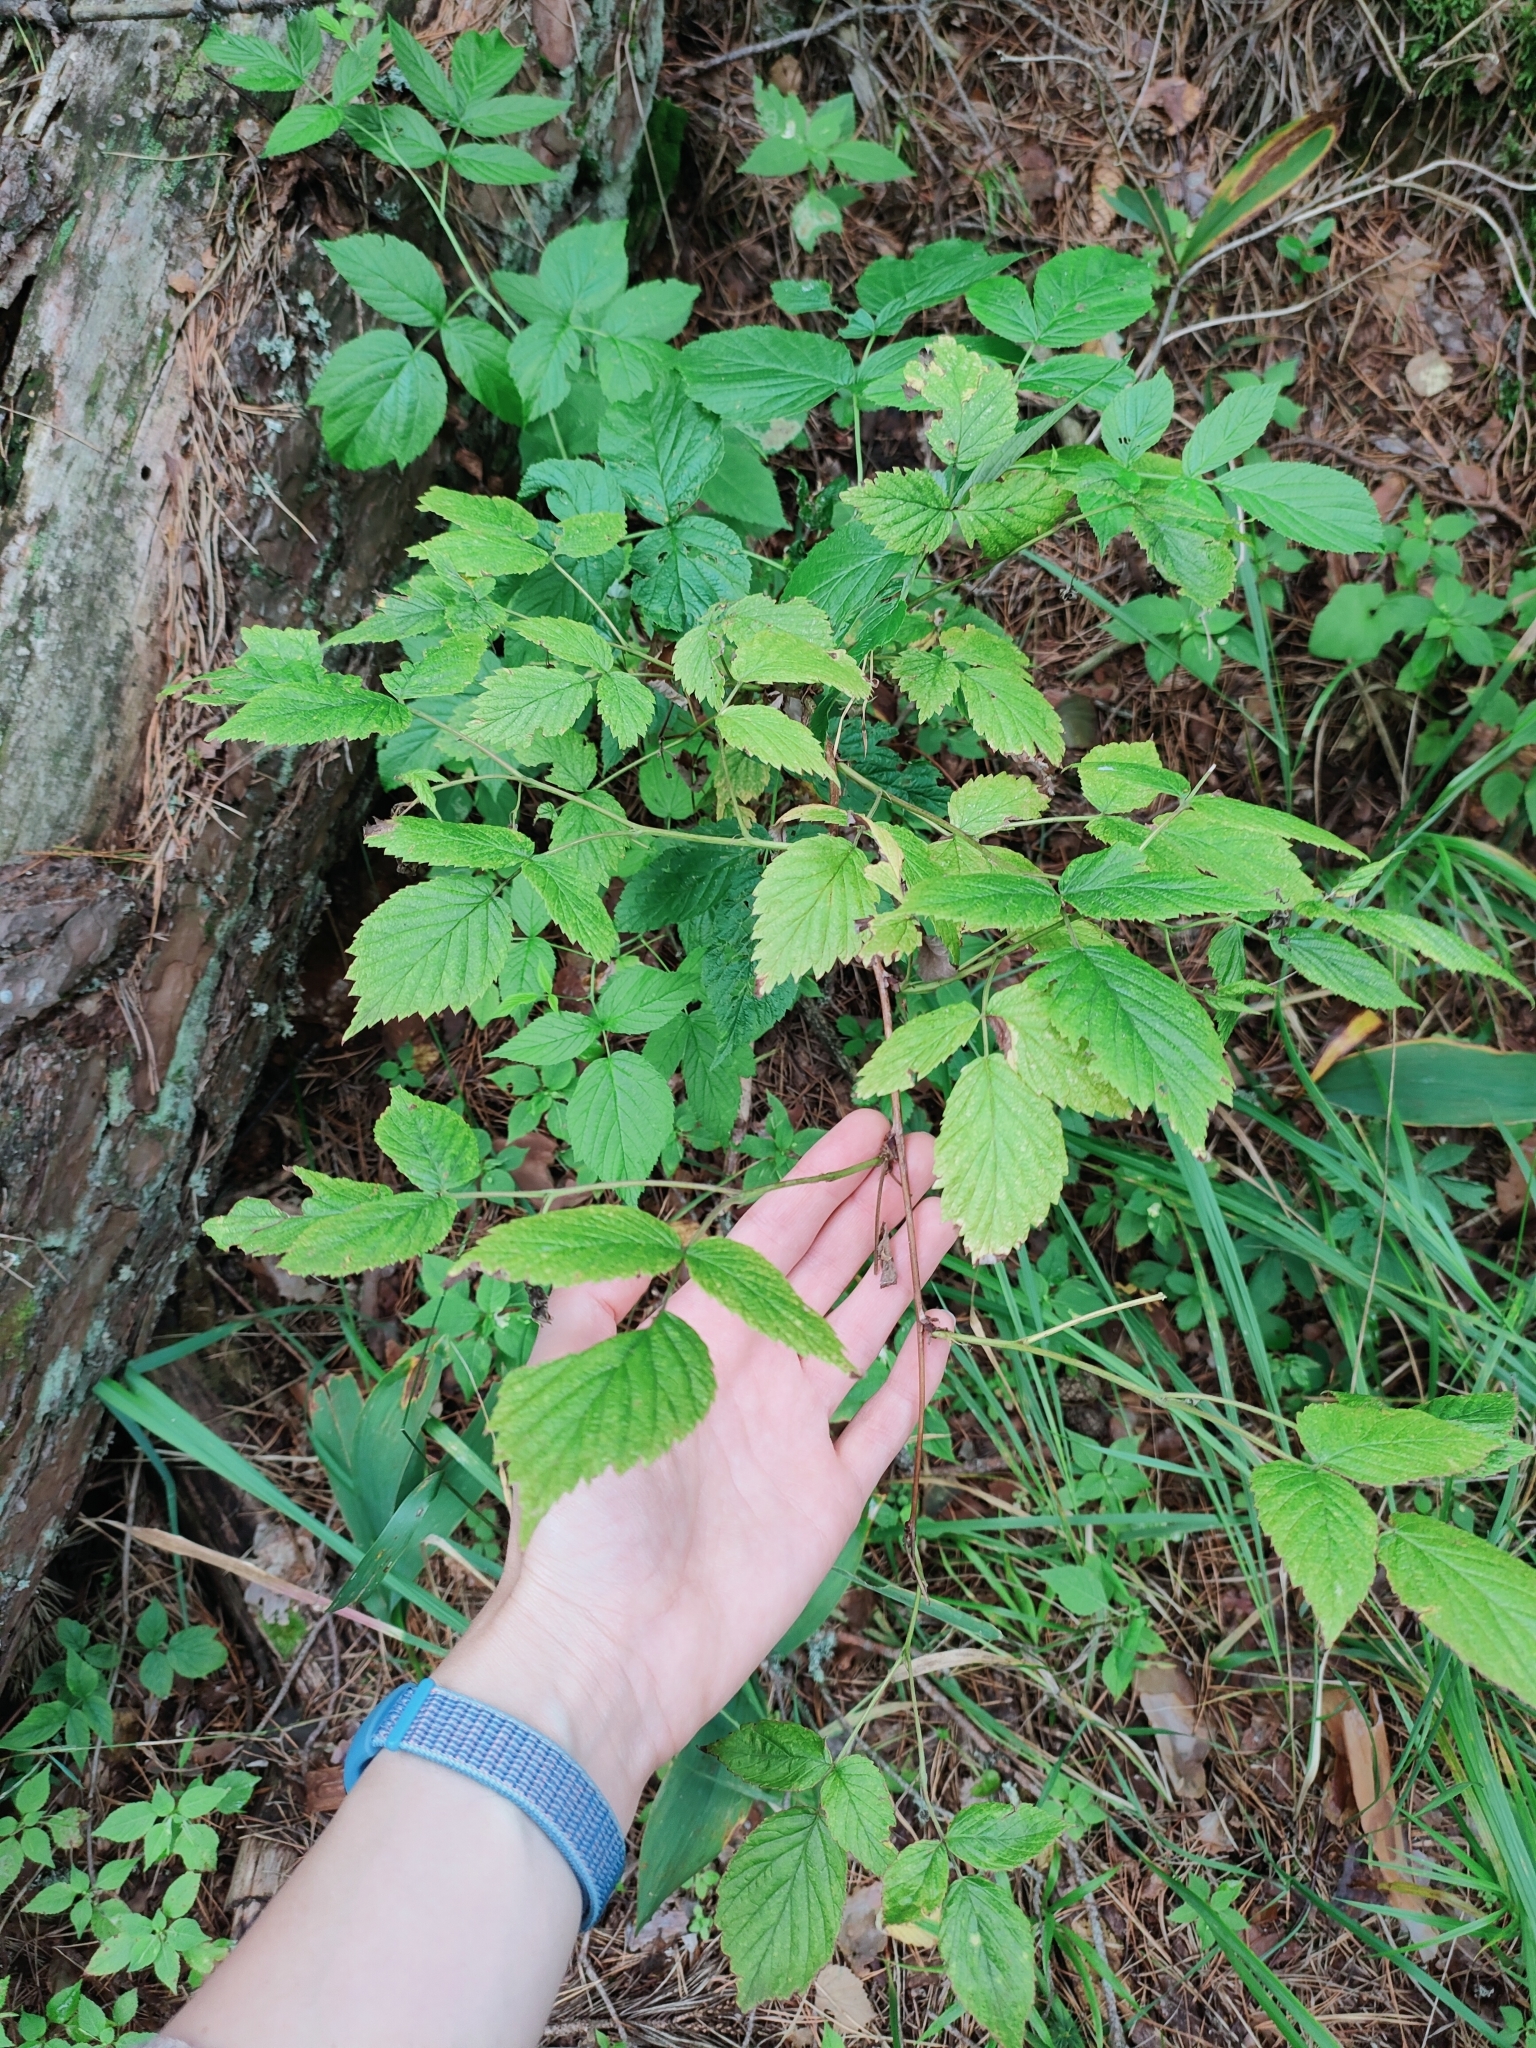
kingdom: Plantae
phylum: Tracheophyta
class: Magnoliopsida
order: Rosales
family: Rosaceae
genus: Rubus
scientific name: Rubus idaeus
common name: Raspberry
